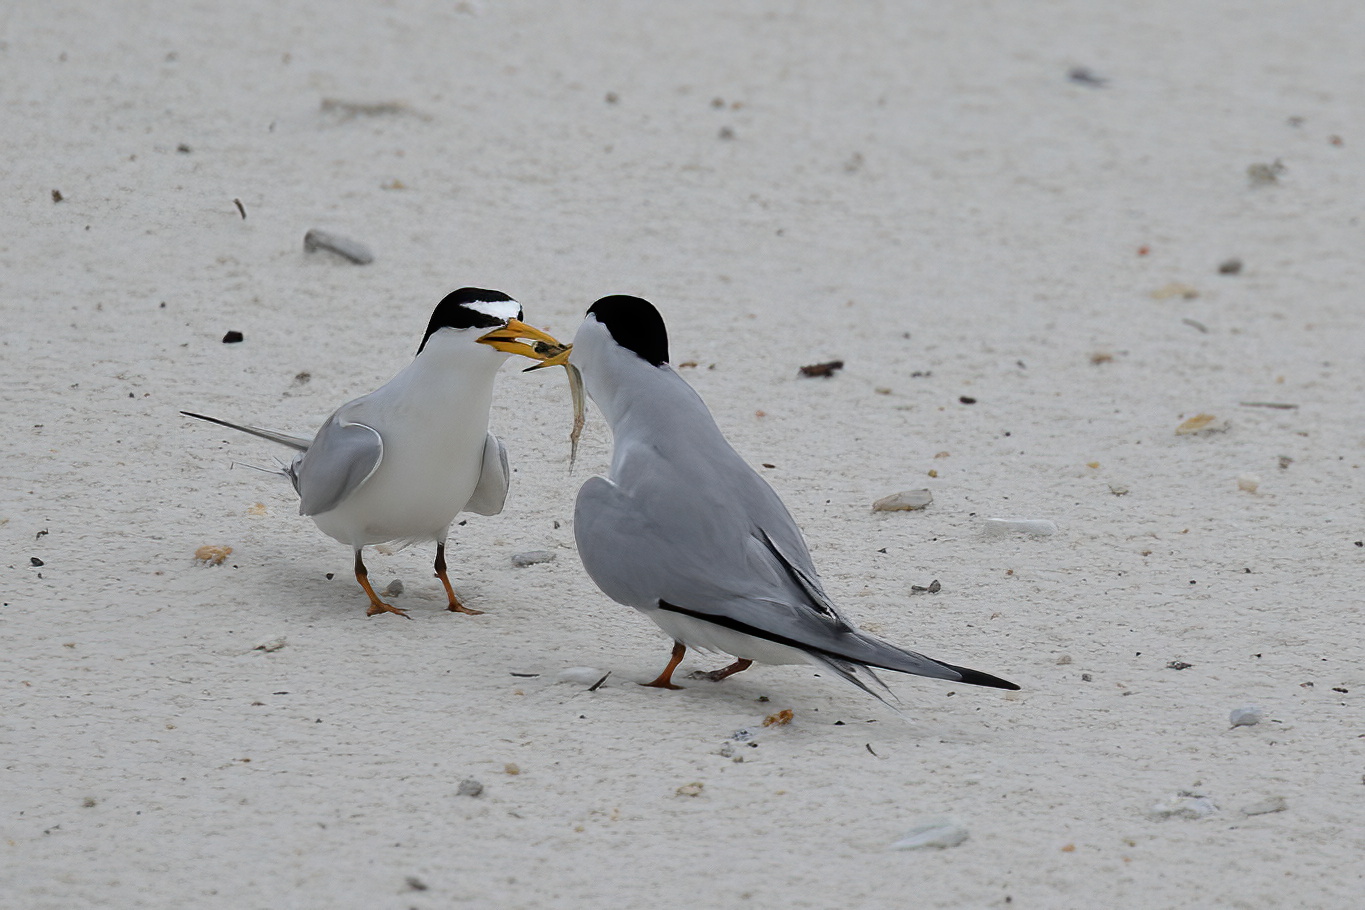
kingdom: Animalia
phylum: Chordata
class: Aves
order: Charadriiformes
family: Laridae
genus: Sternula
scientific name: Sternula antillarum
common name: Least tern
